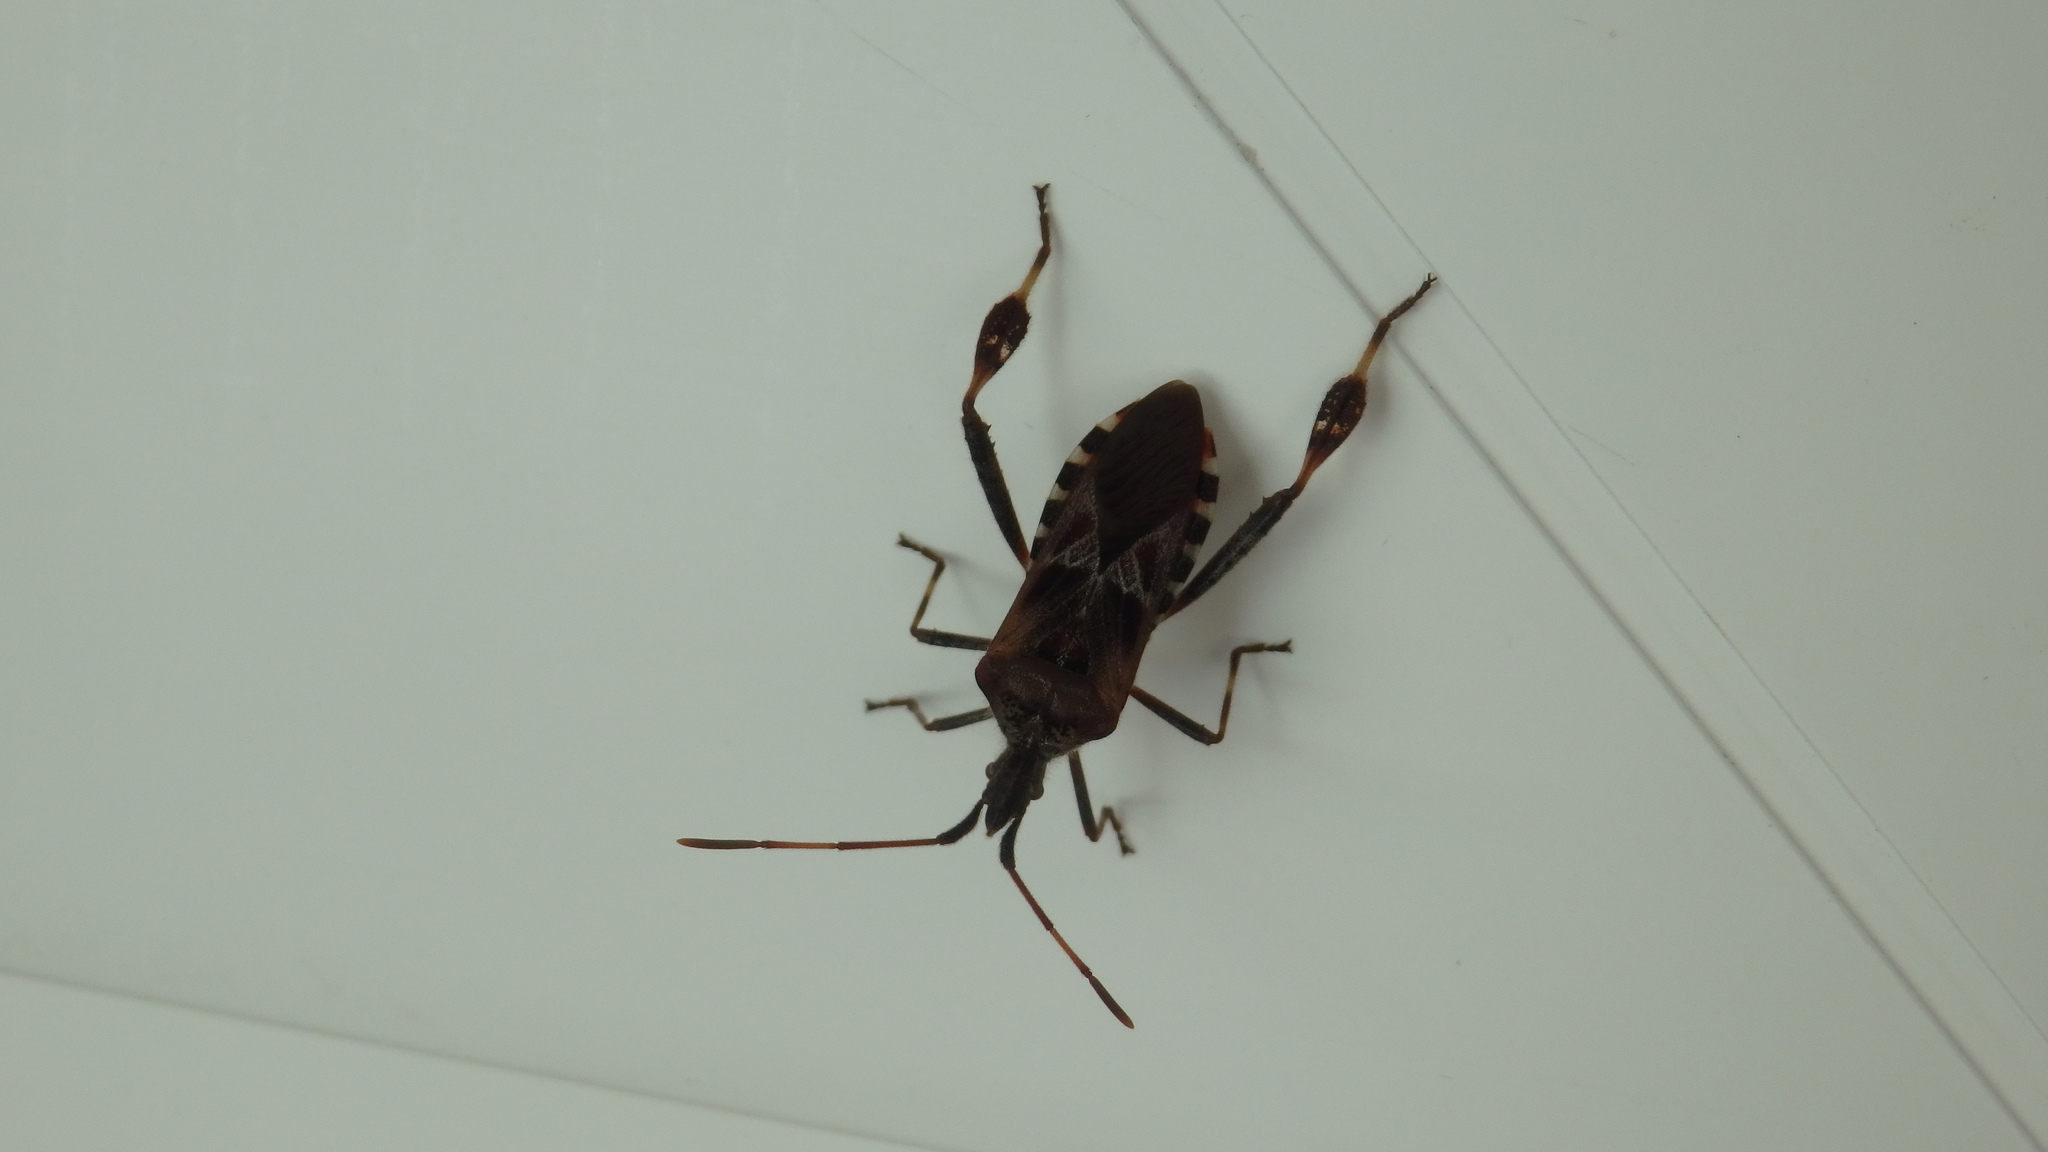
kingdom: Animalia
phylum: Arthropoda
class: Insecta
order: Hemiptera
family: Coreidae
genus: Leptoglossus
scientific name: Leptoglossus occidentalis
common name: Western conifer-seed bug
